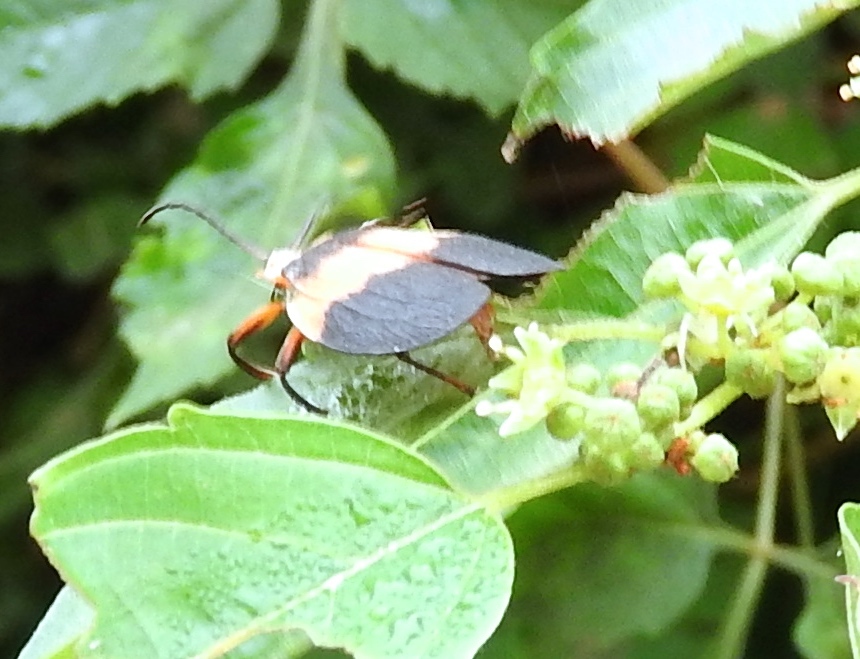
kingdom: Animalia
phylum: Arthropoda
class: Insecta
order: Coleoptera
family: Lycidae
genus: Lycus
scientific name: Lycus
